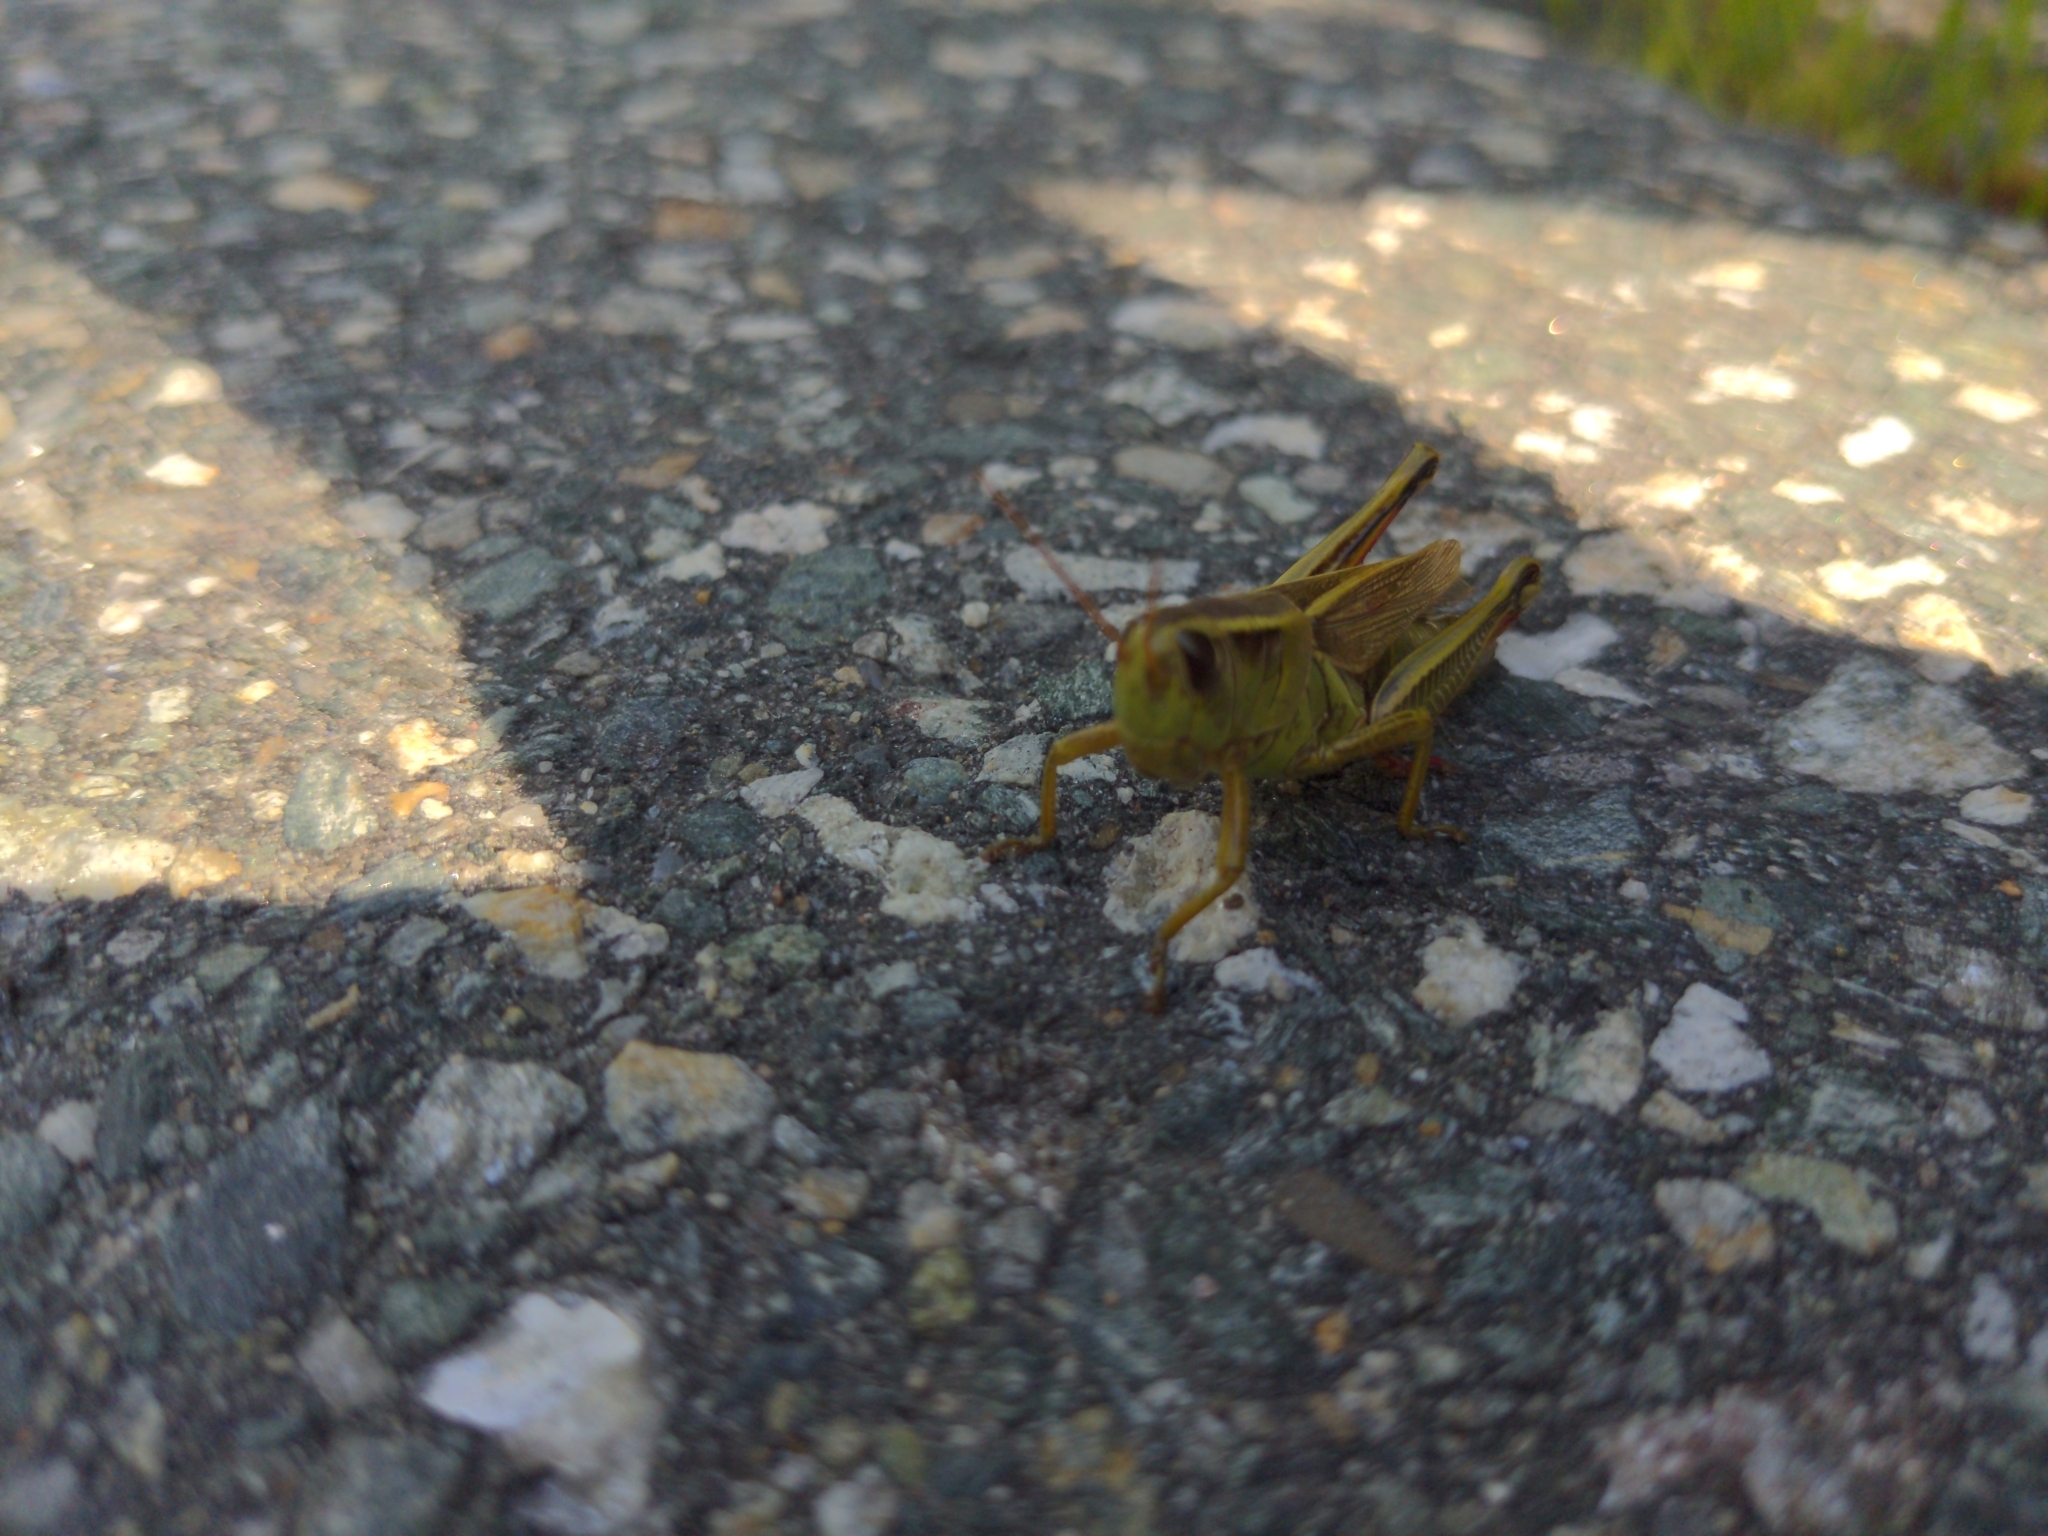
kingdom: Animalia
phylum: Arthropoda
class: Insecta
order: Orthoptera
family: Acrididae
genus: Melanoplus
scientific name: Melanoplus bivittatus
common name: Two-striped grasshopper
